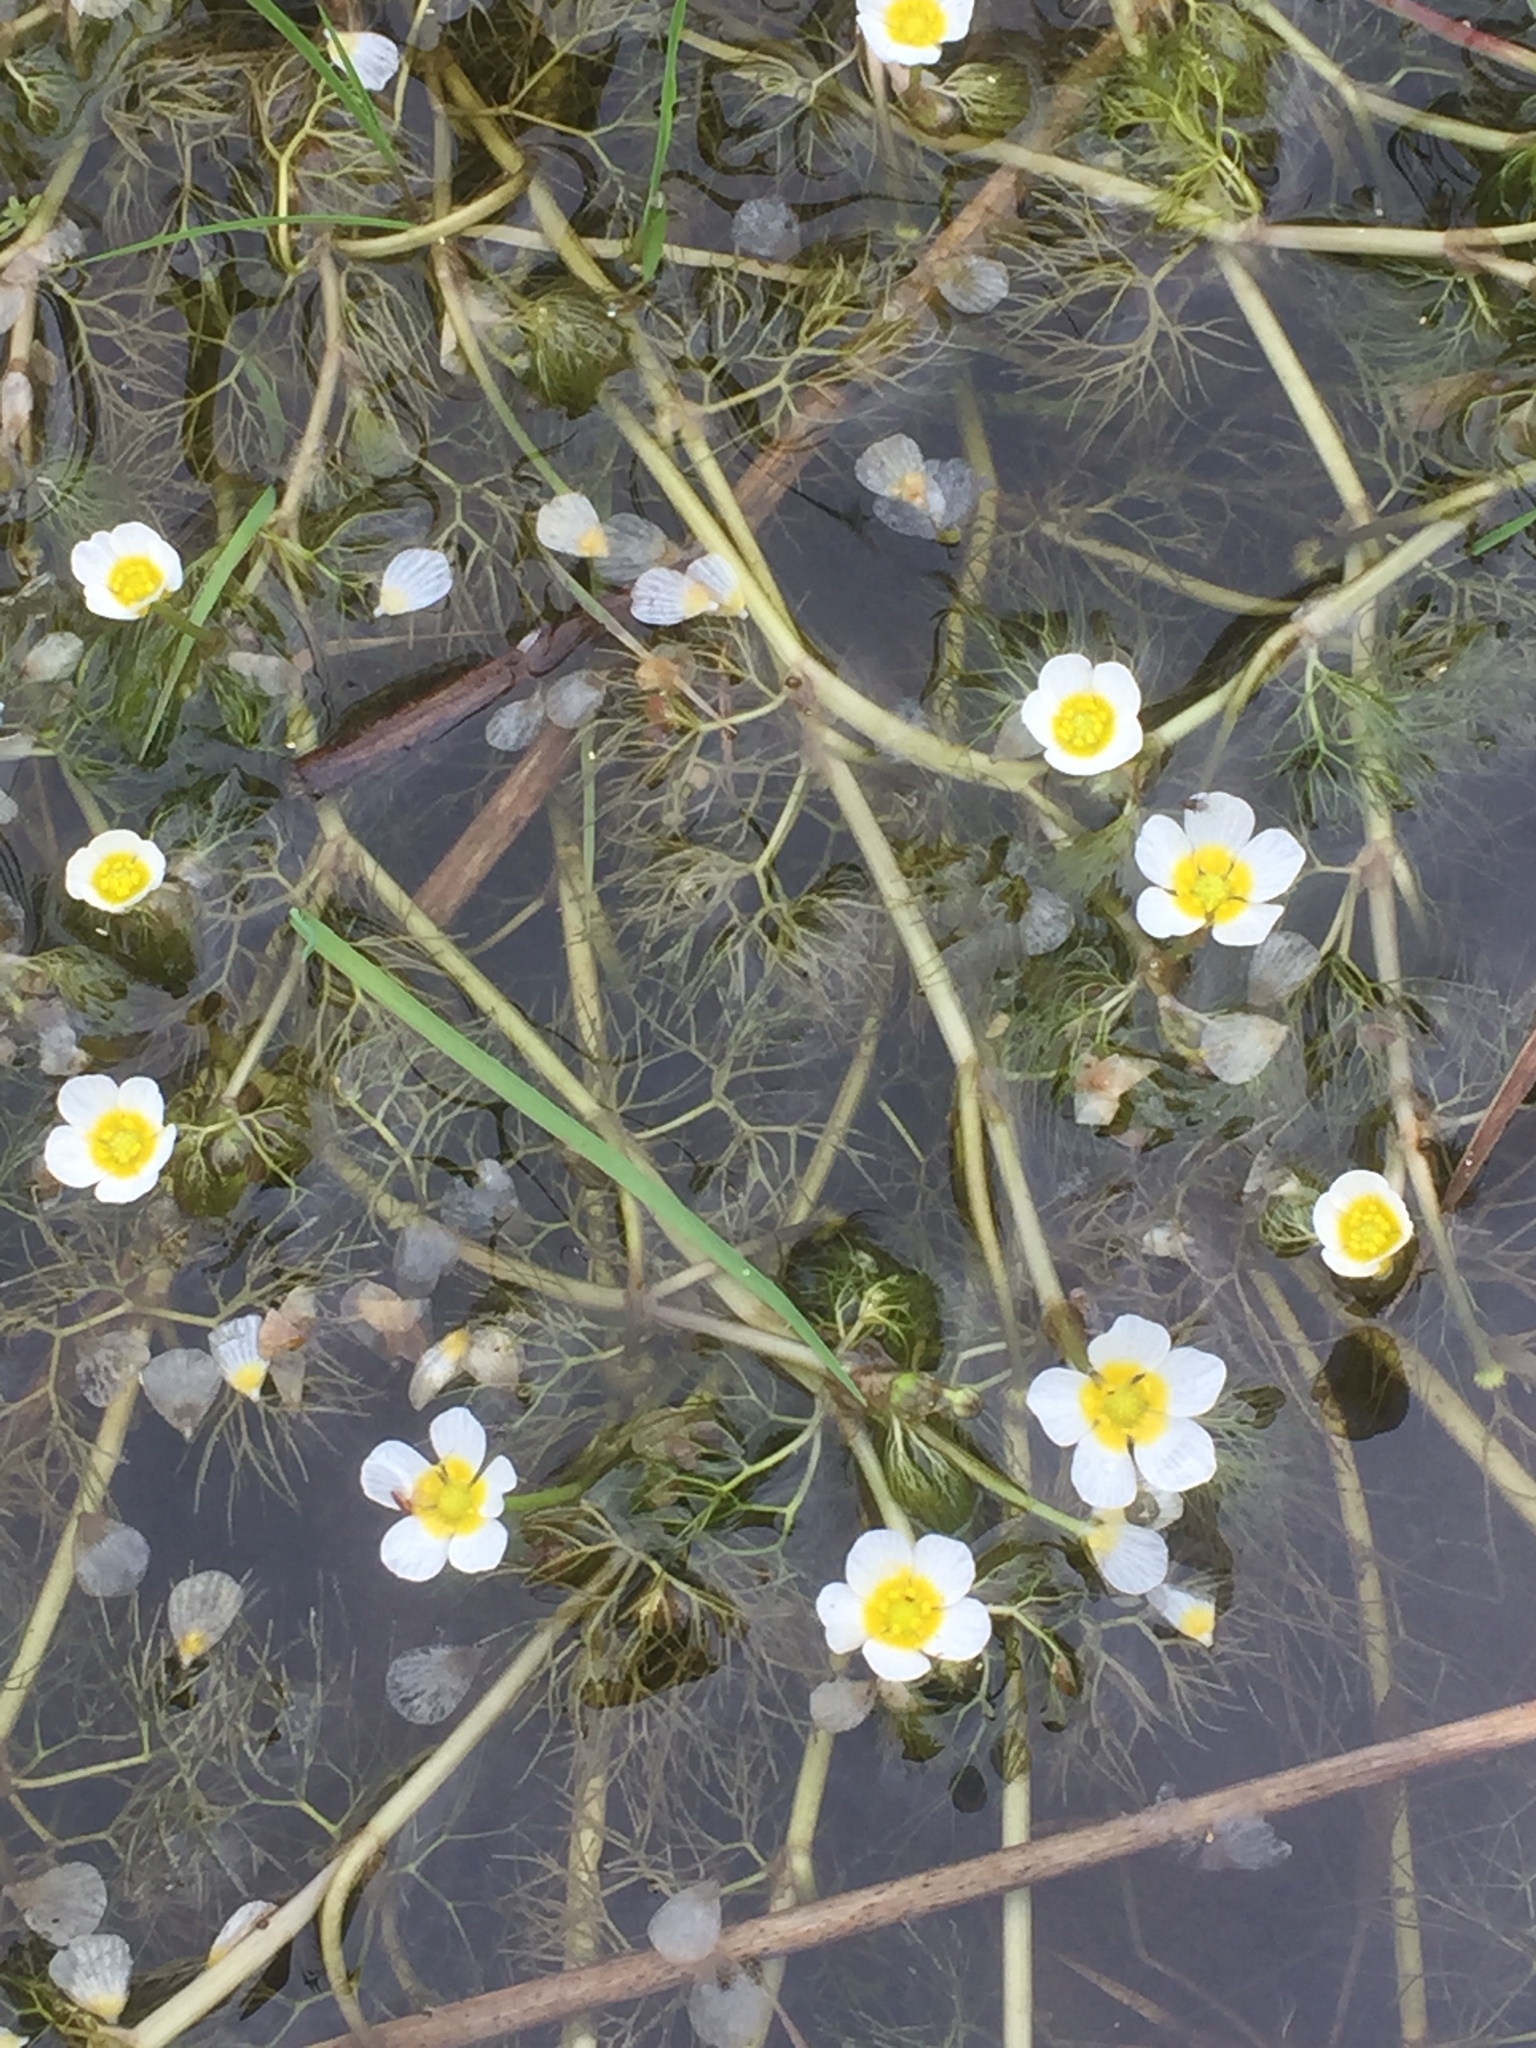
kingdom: Plantae
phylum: Tracheophyta
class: Magnoliopsida
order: Ranunculales
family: Ranunculaceae
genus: Ranunculus
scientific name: Ranunculus aquatilis
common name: Common water-crowfoot
